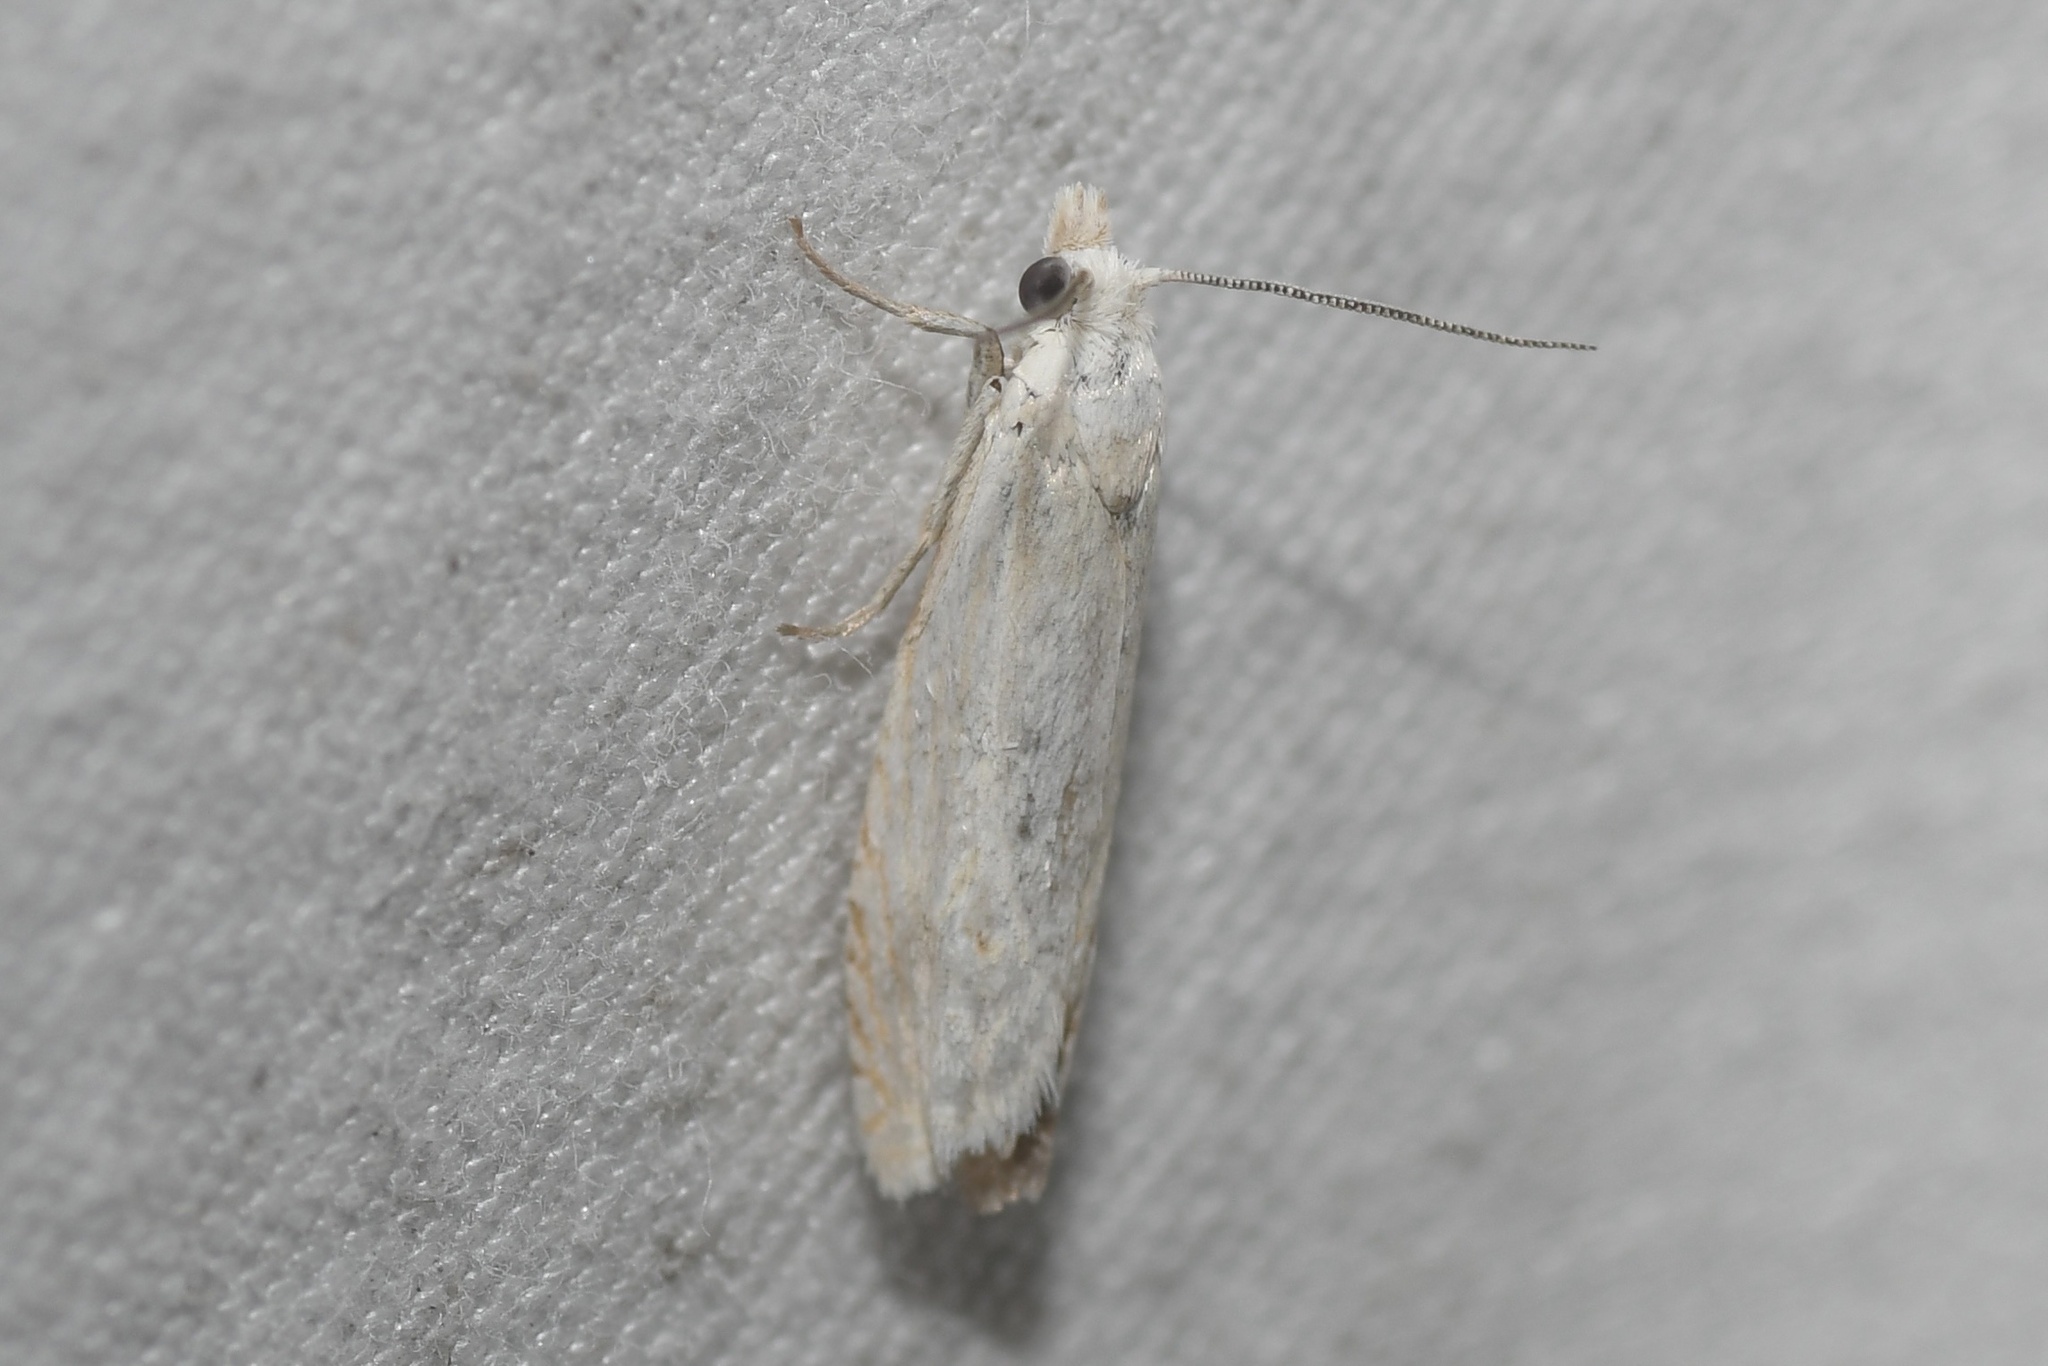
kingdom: Animalia
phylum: Arthropoda
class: Insecta
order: Lepidoptera
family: Tortricidae
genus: Pelochrista
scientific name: Pelochrista argentialbana
